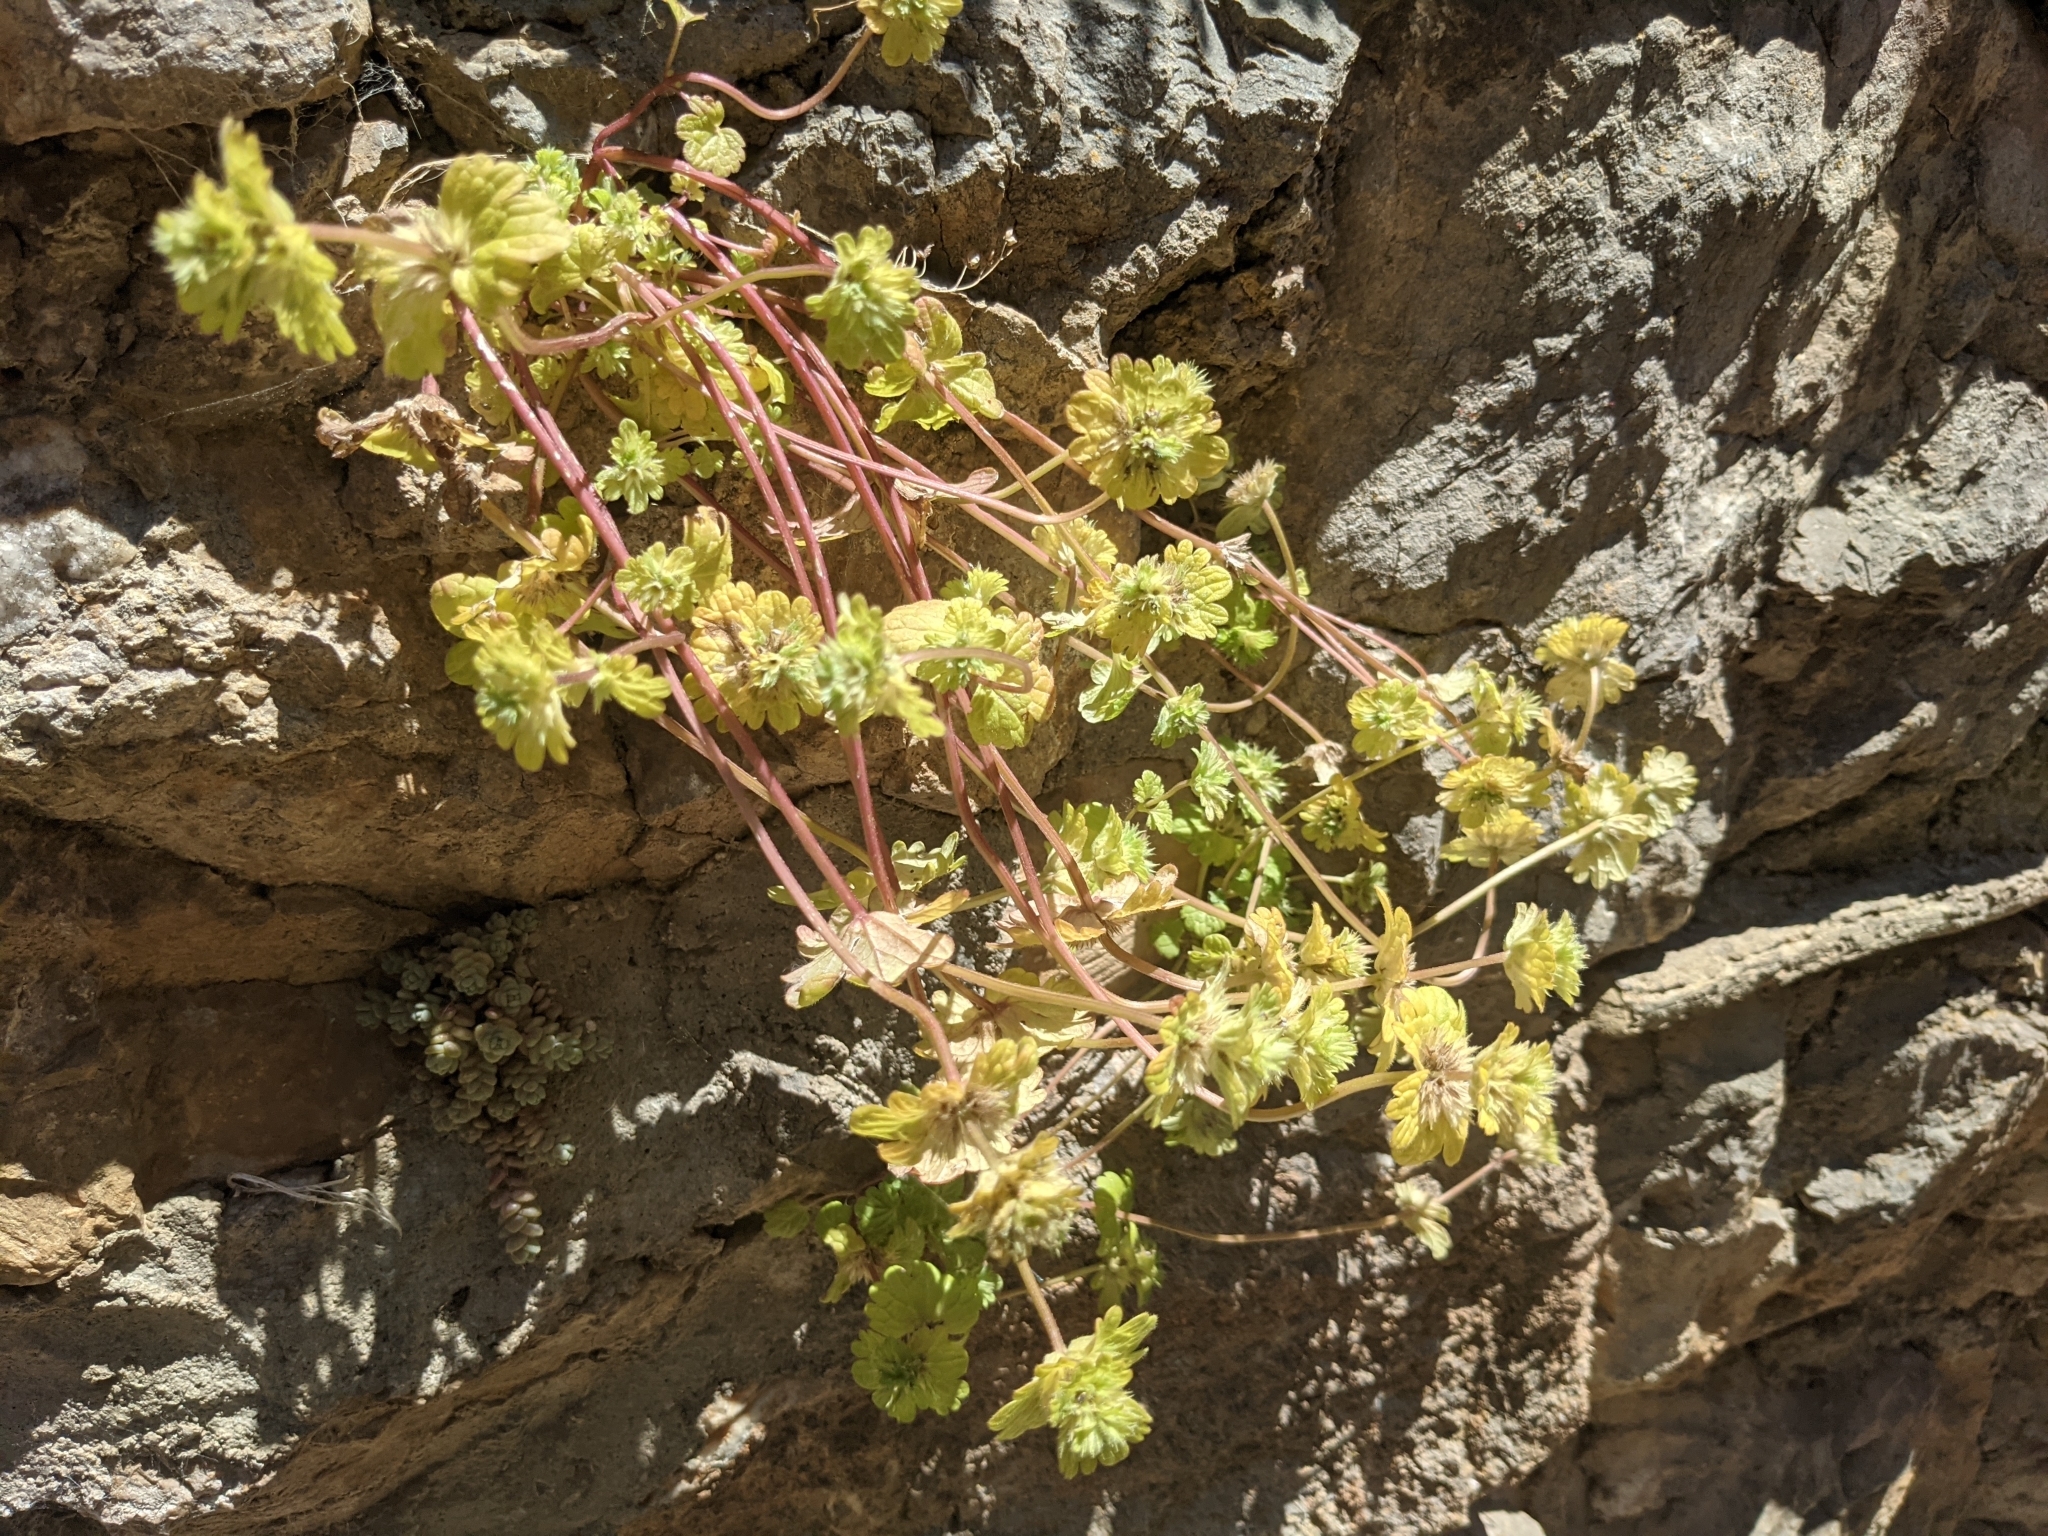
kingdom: Plantae
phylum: Tracheophyta
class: Magnoliopsida
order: Lamiales
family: Lamiaceae
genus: Lamium
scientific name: Lamium amplexicaule
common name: Henbit dead-nettle
